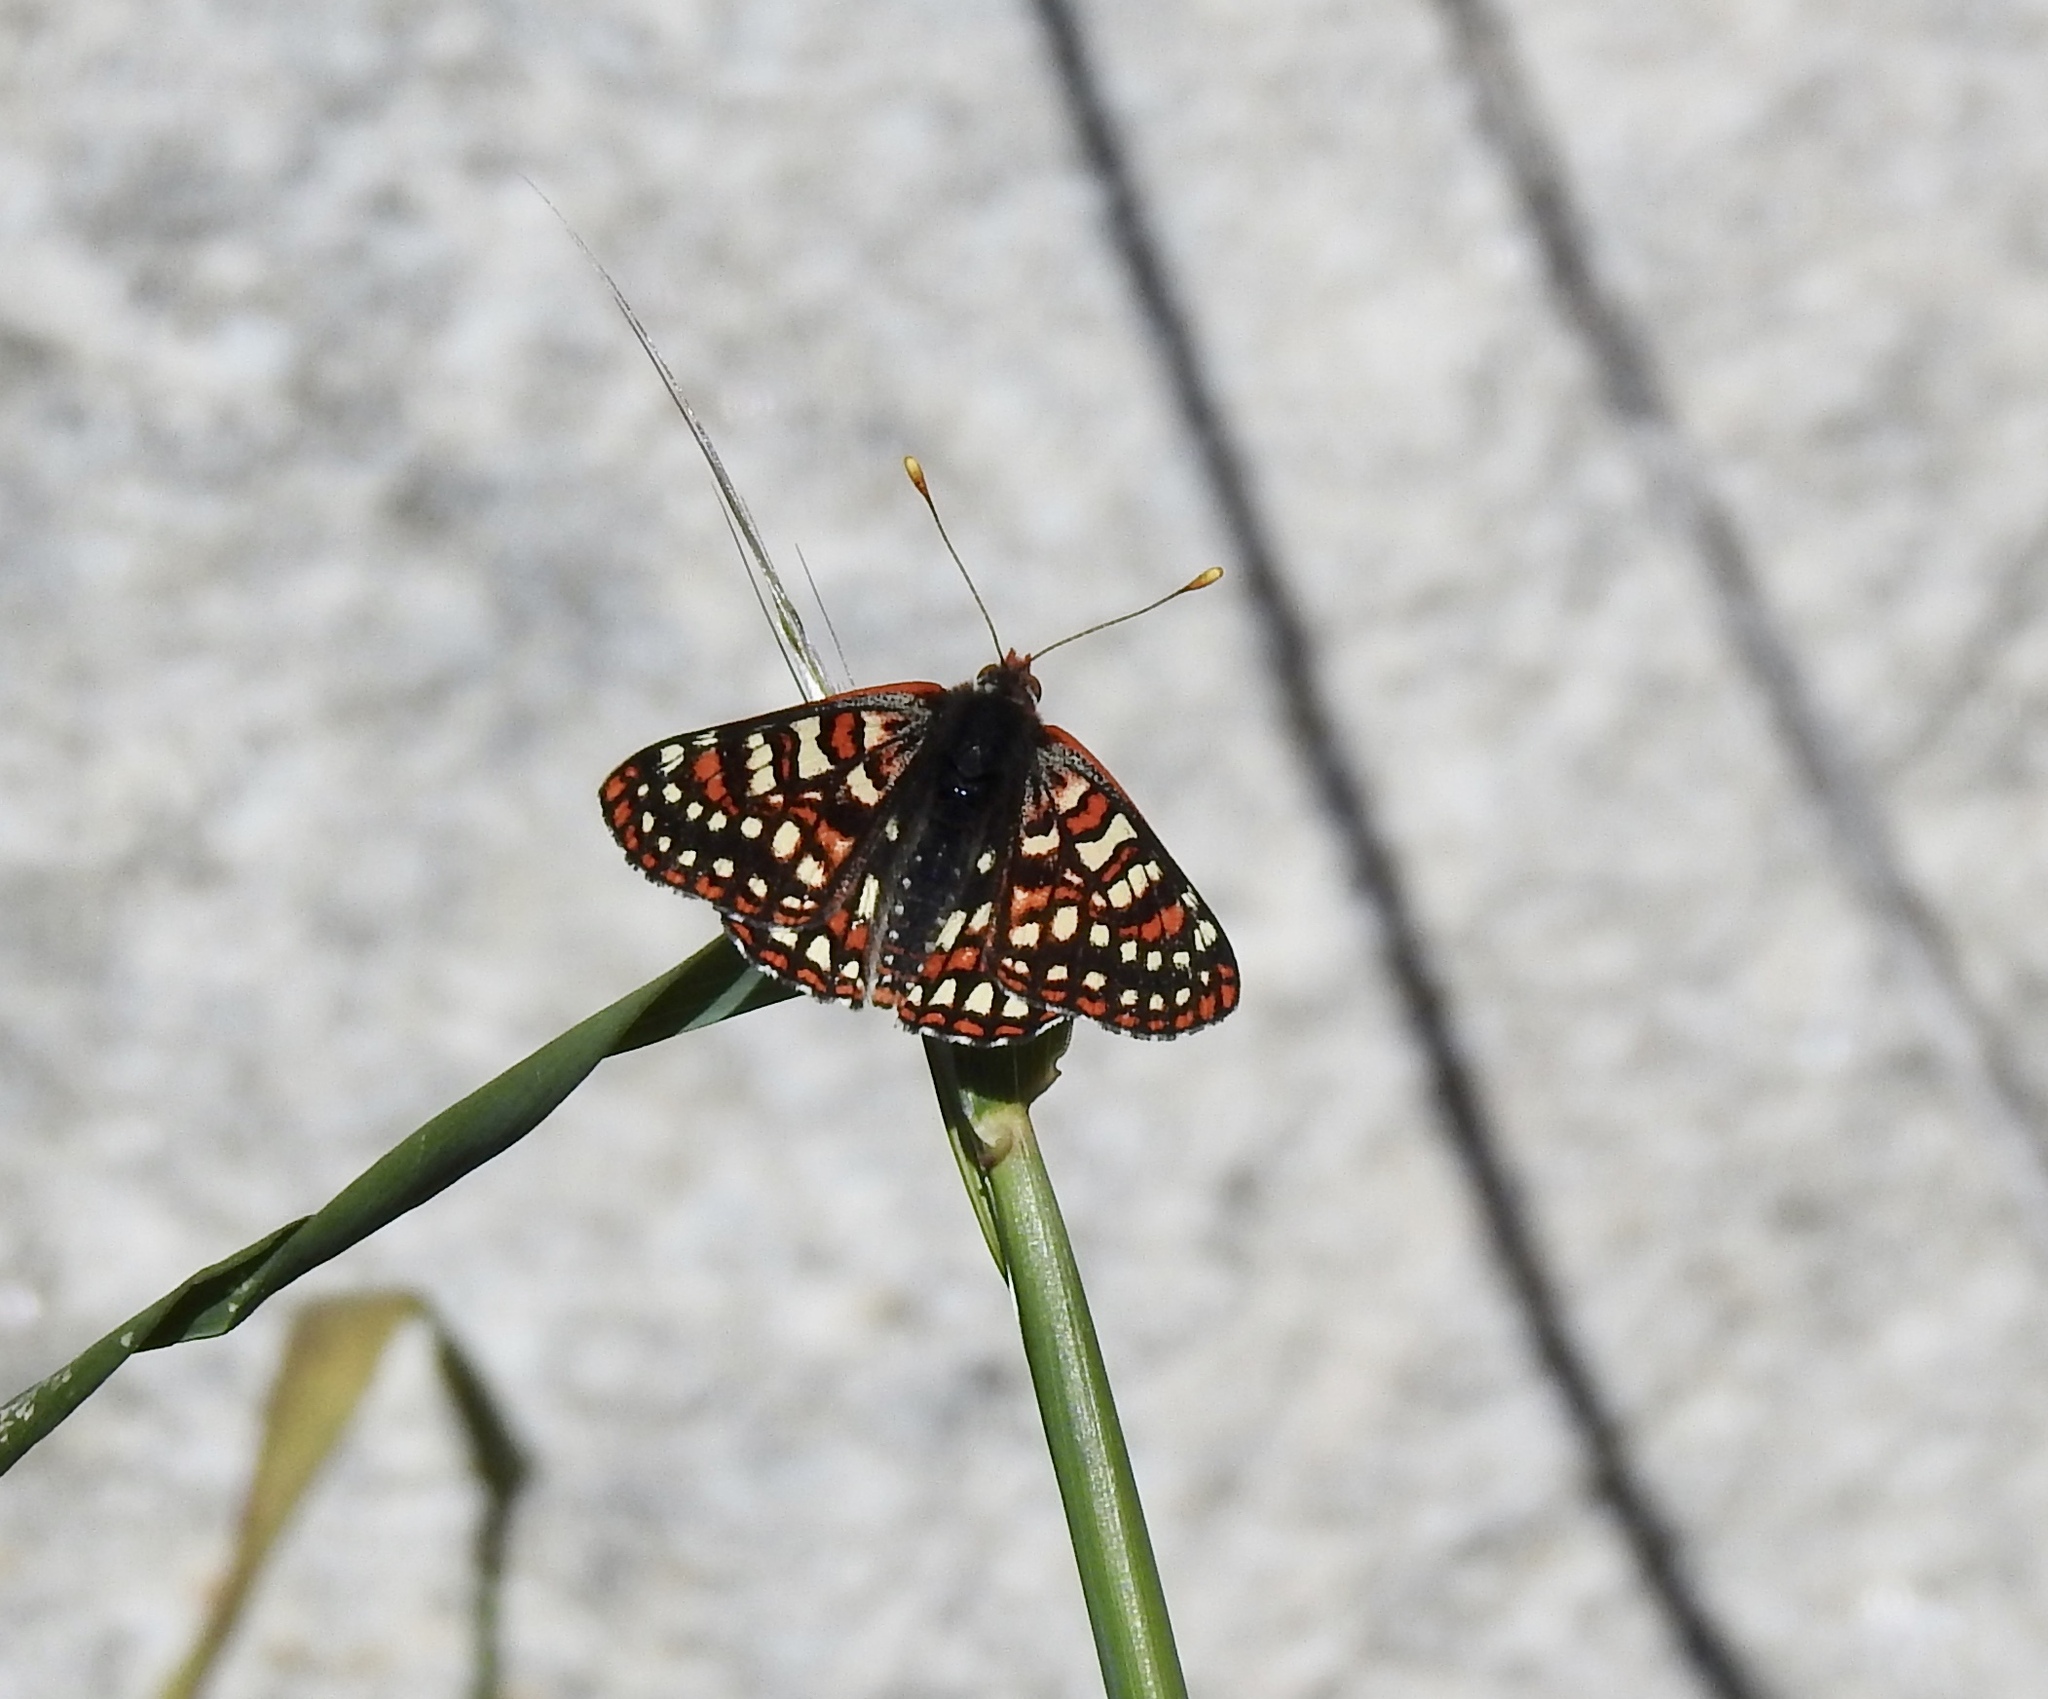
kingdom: Animalia
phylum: Arthropoda
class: Insecta
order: Lepidoptera
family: Nymphalidae
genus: Occidryas
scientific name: Occidryas chalcedona
